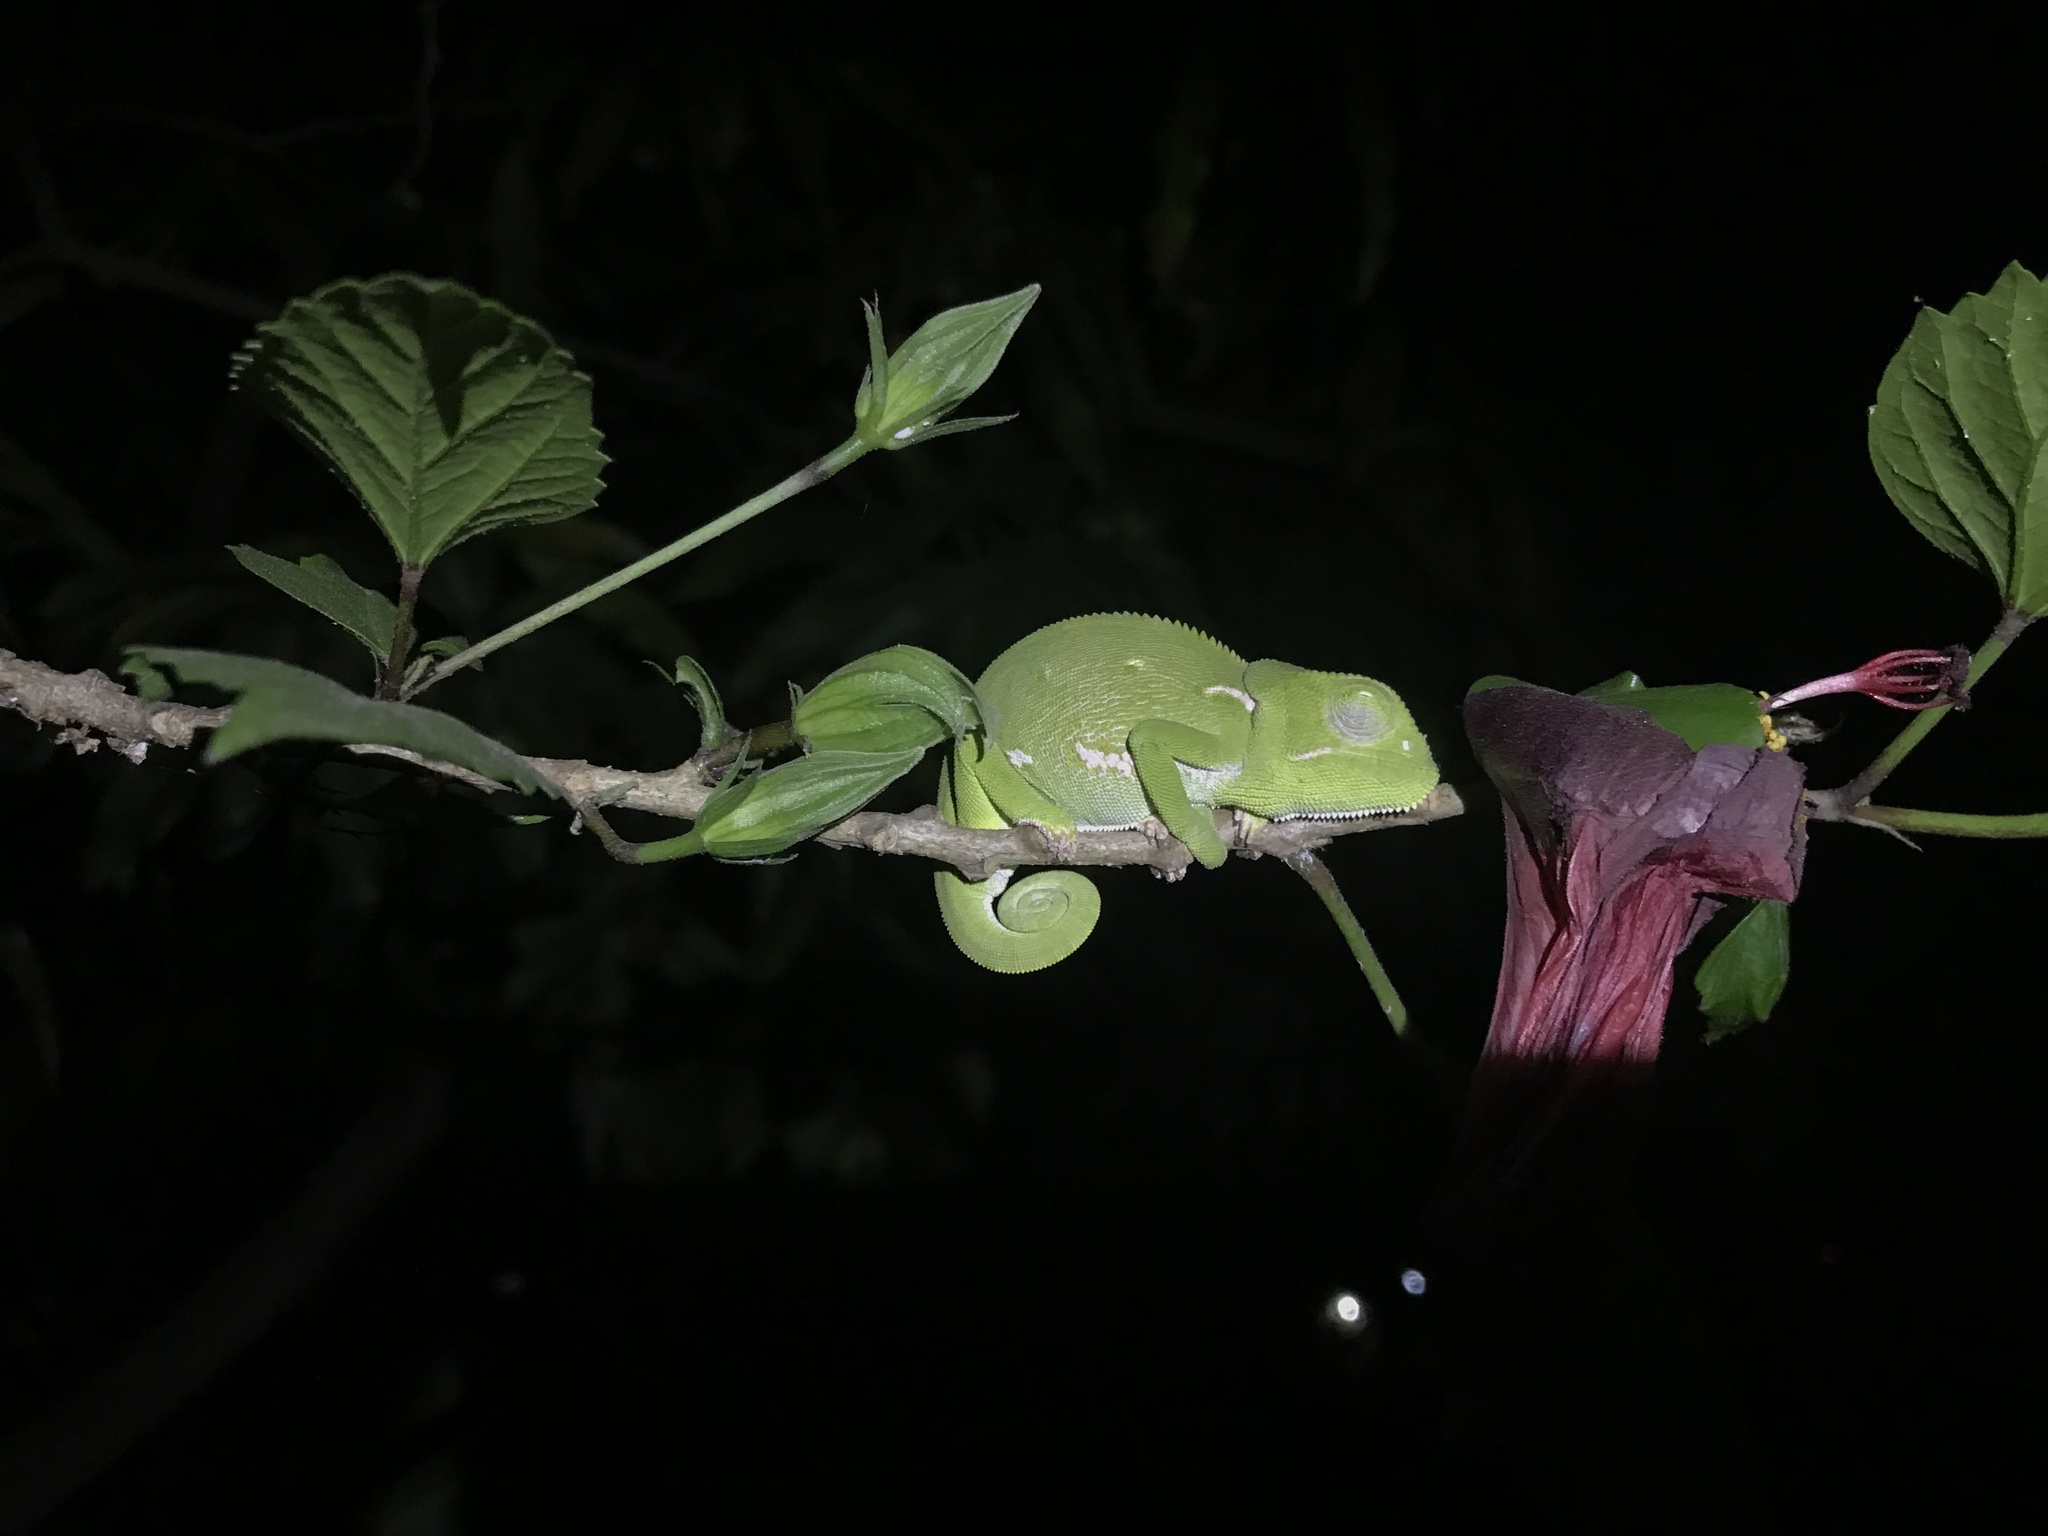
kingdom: Animalia
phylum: Chordata
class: Squamata
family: Chamaeleonidae
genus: Chamaeleo
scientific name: Chamaeleo dilepis
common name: Flapneck chameleon
